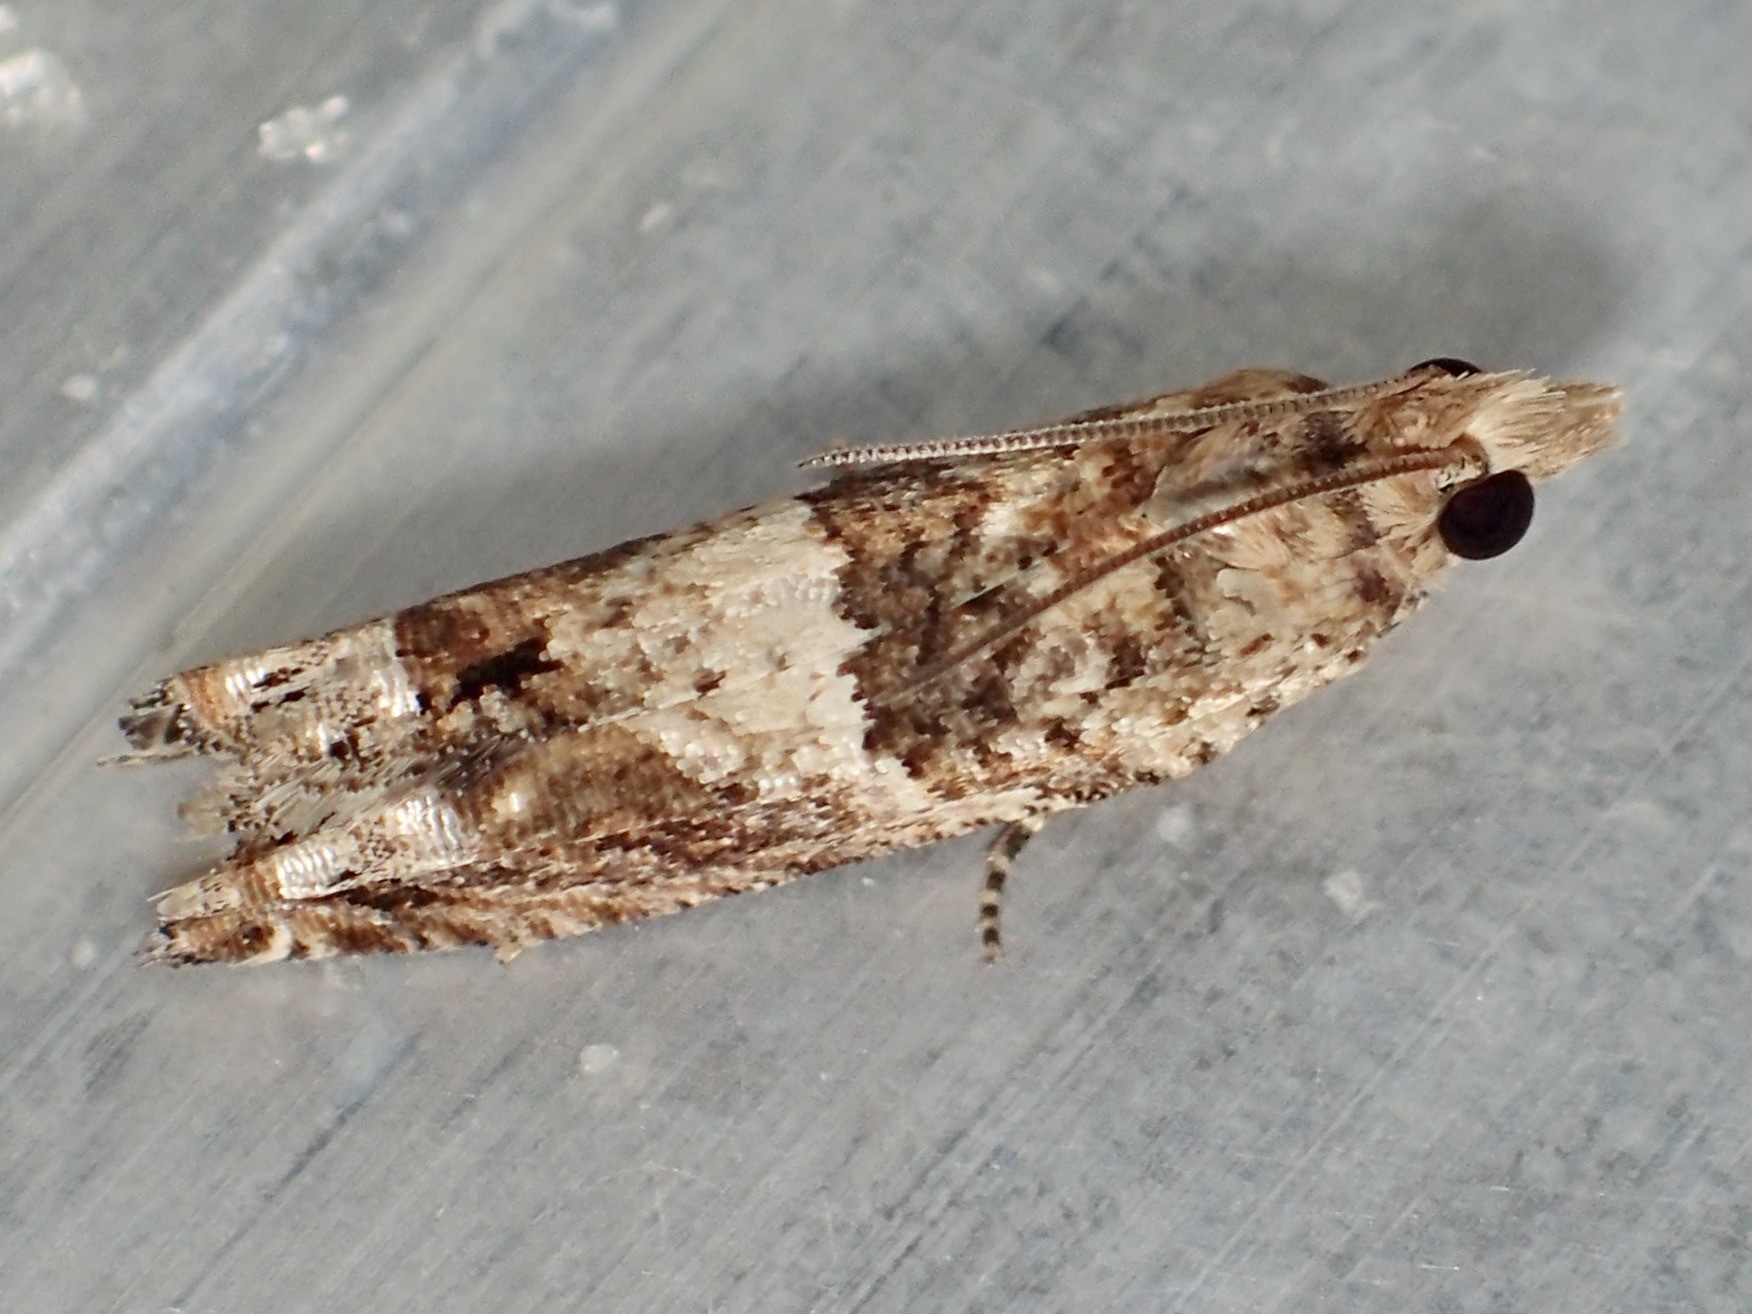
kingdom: Animalia
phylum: Arthropoda
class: Insecta
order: Lepidoptera
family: Tortricidae
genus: Crocidosema
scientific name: Crocidosema plebejana
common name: Southern bell
